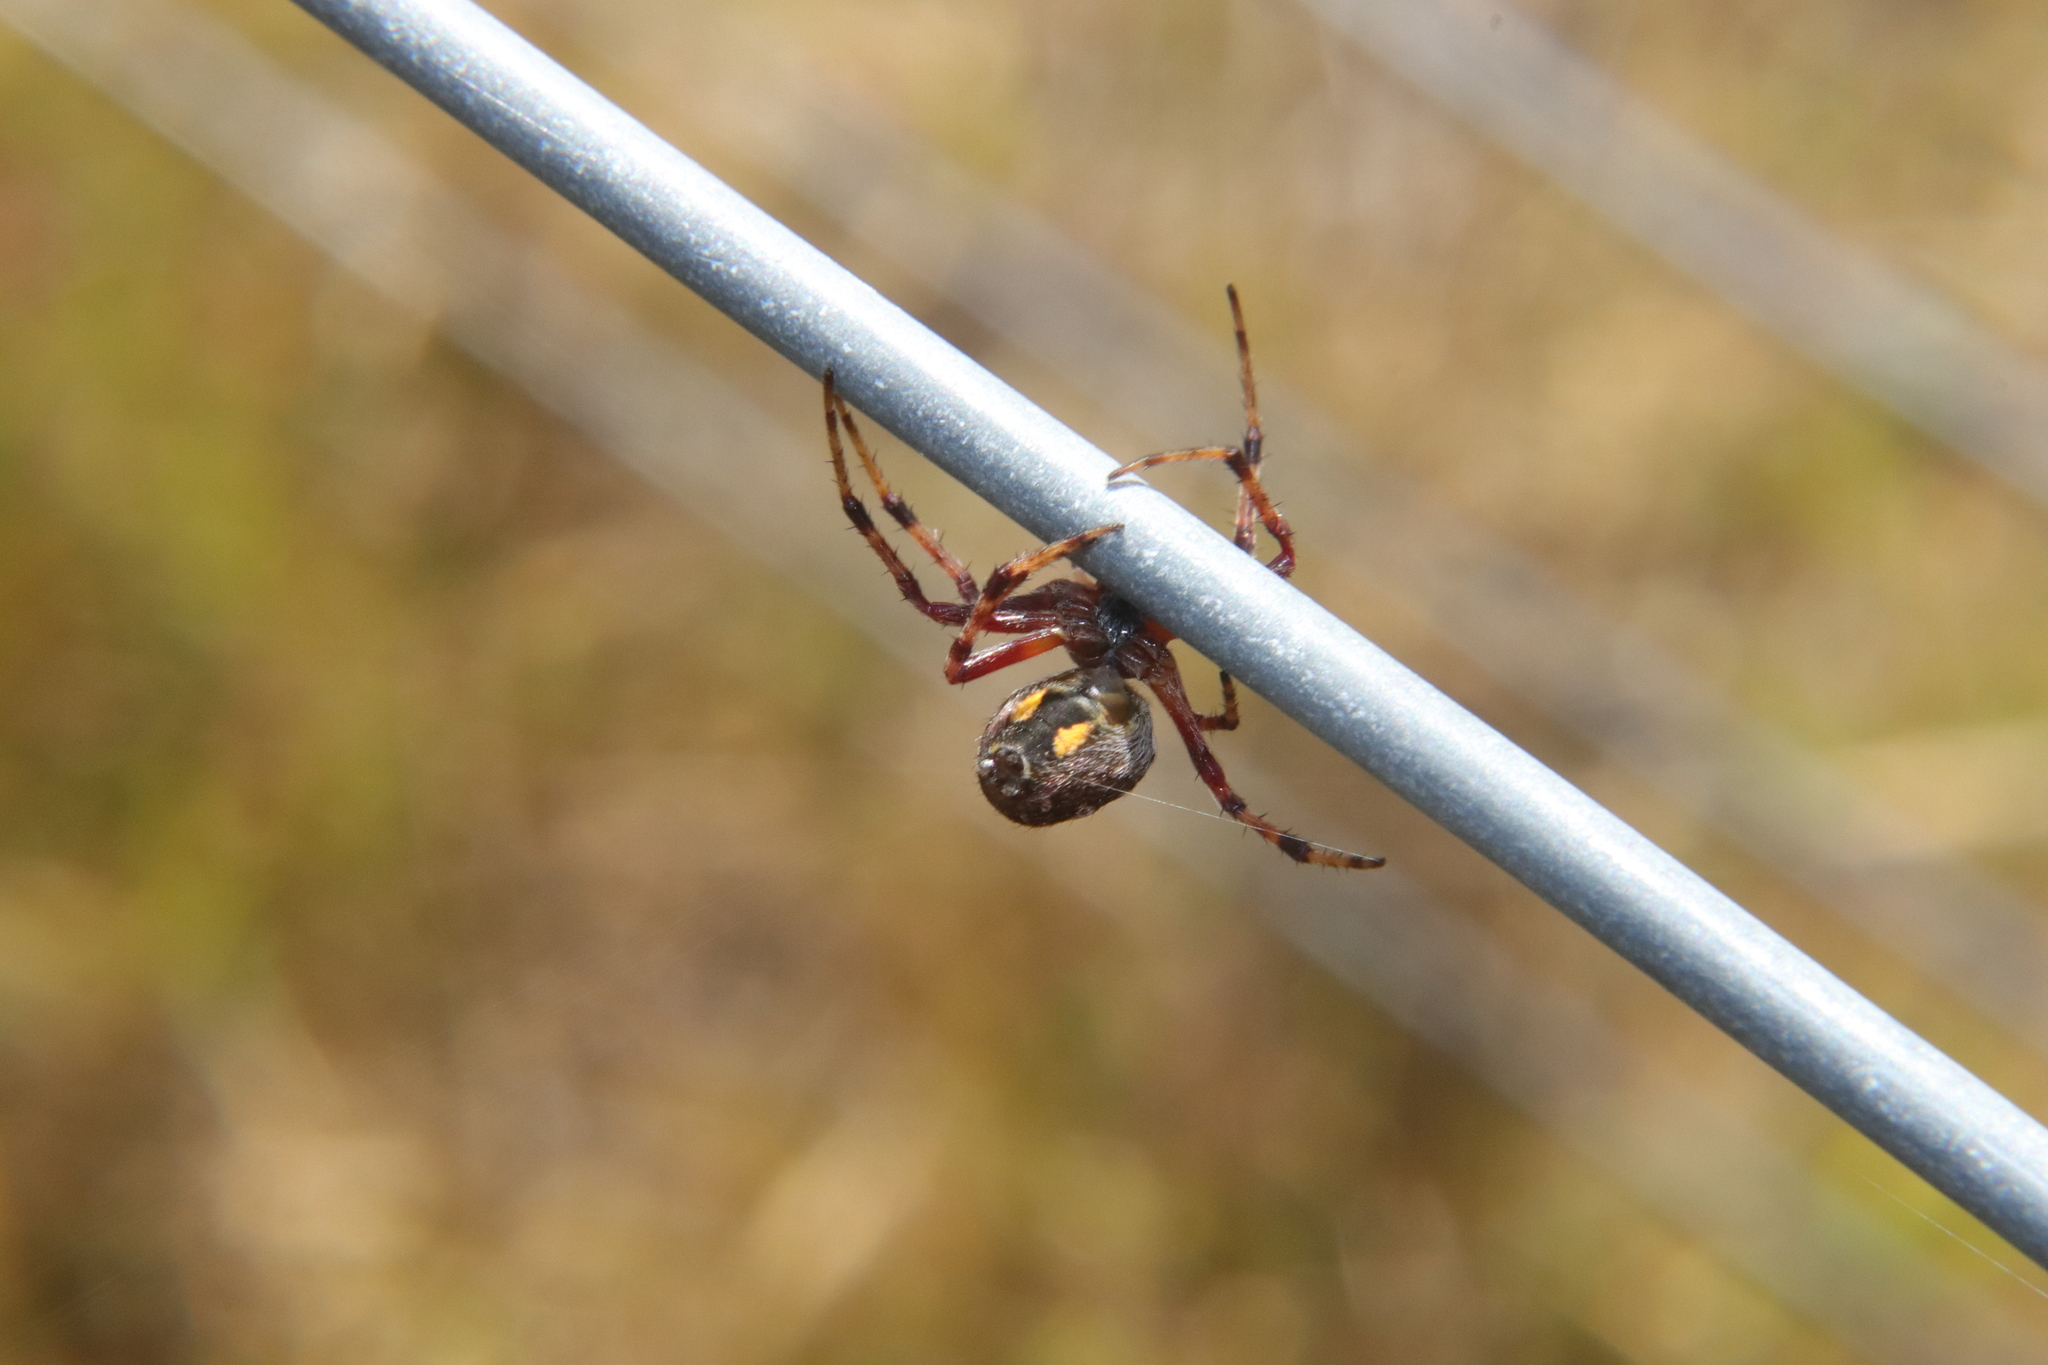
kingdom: Animalia
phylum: Arthropoda
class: Arachnida
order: Araneae
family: Araneidae
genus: Salsa
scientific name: Salsa fuliginata
